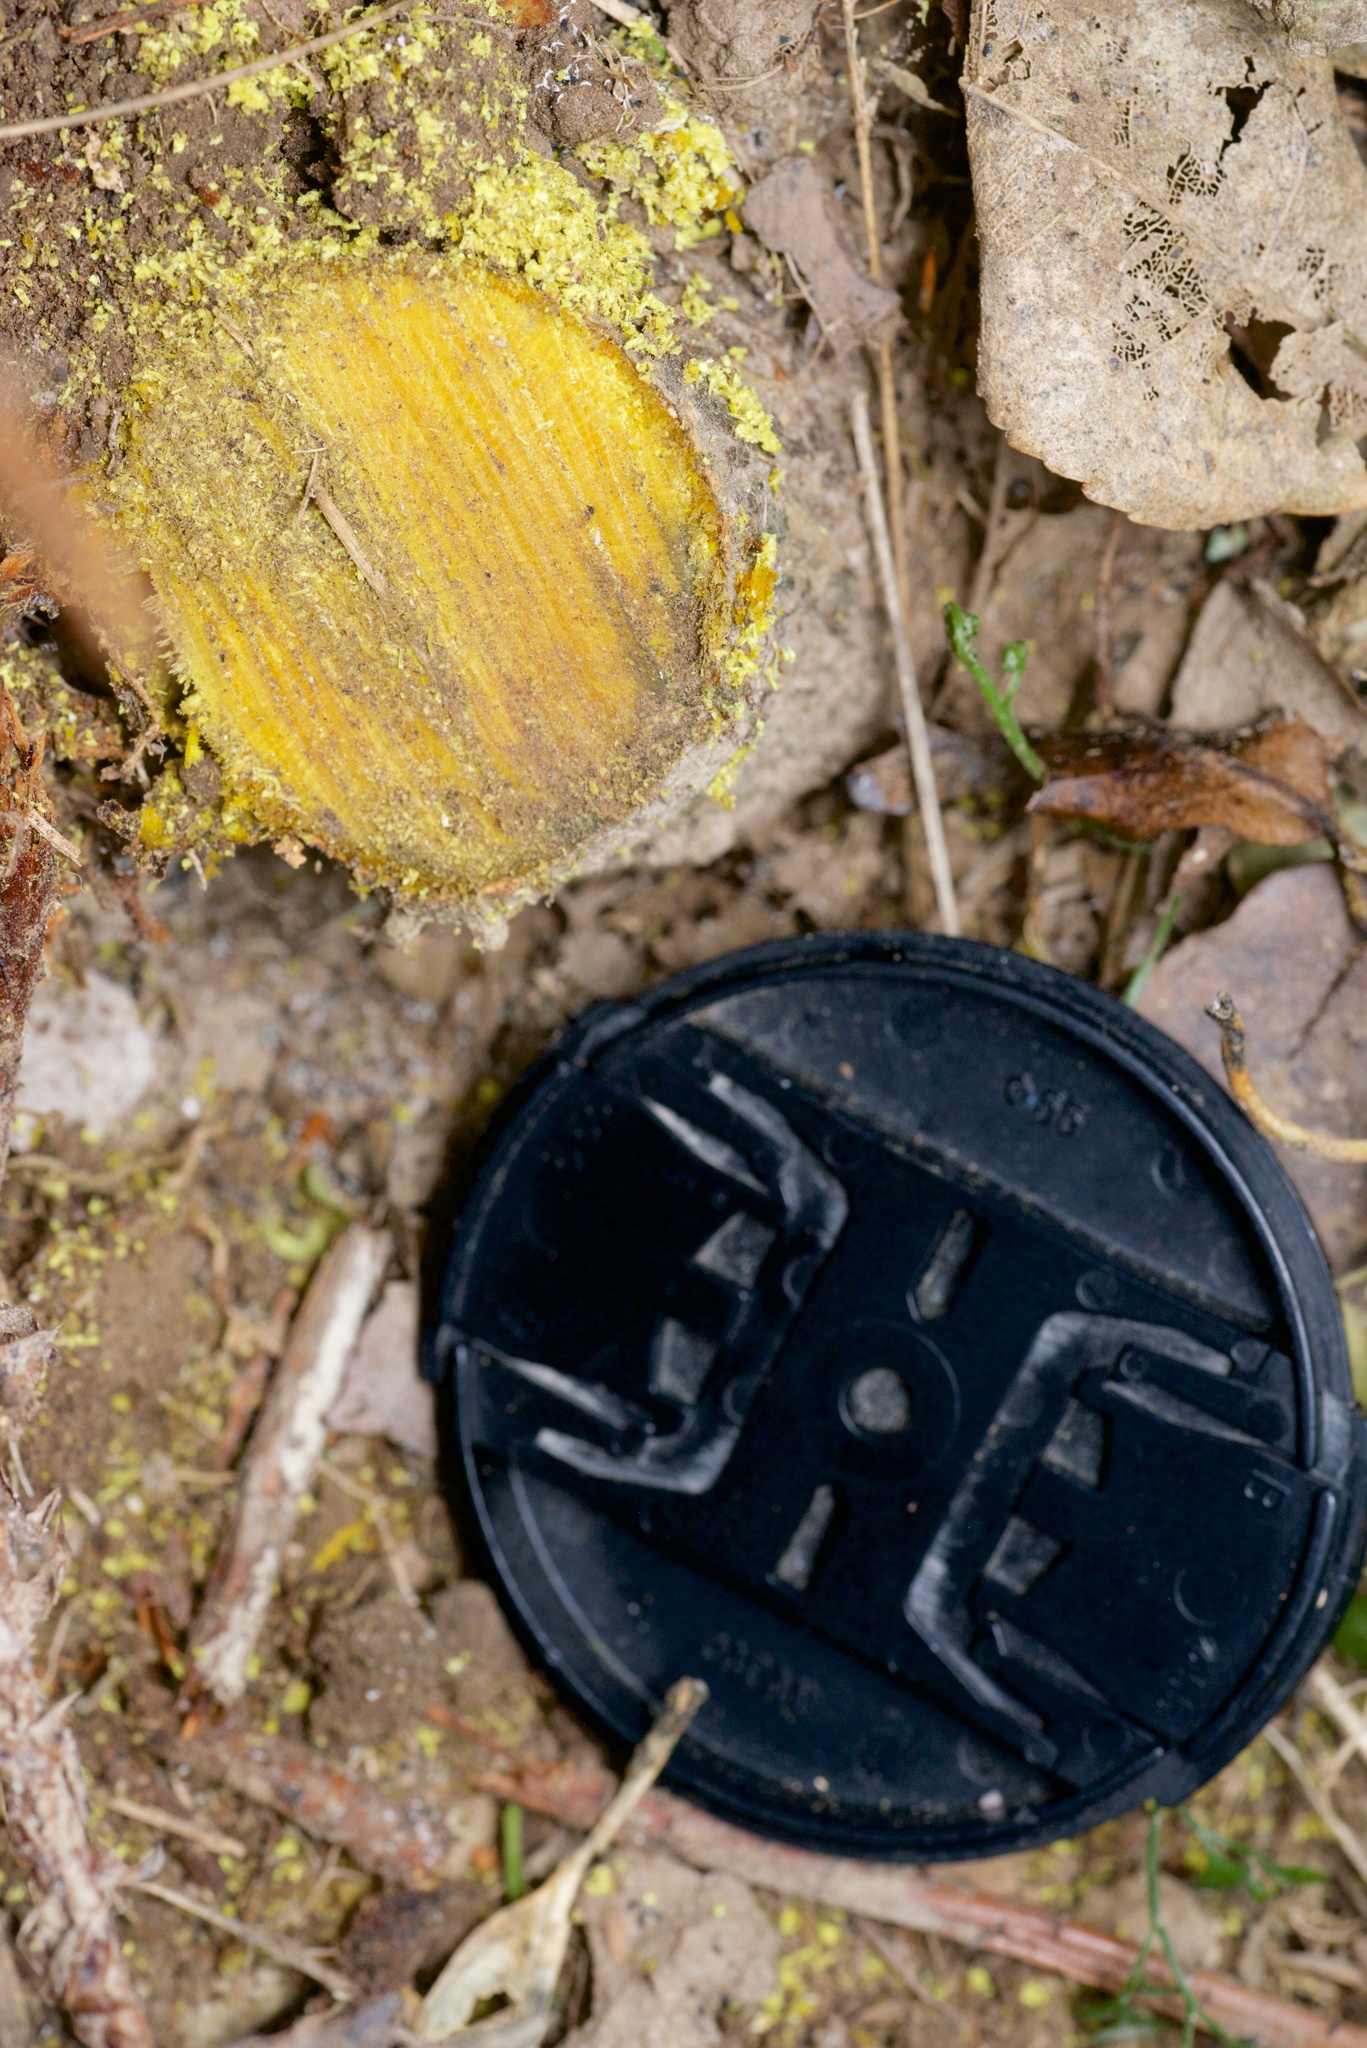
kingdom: Plantae
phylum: Tracheophyta
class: Magnoliopsida
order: Ranunculales
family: Berberidaceae
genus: Berberis
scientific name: Berberis darwinii
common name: Darwin's barberry
